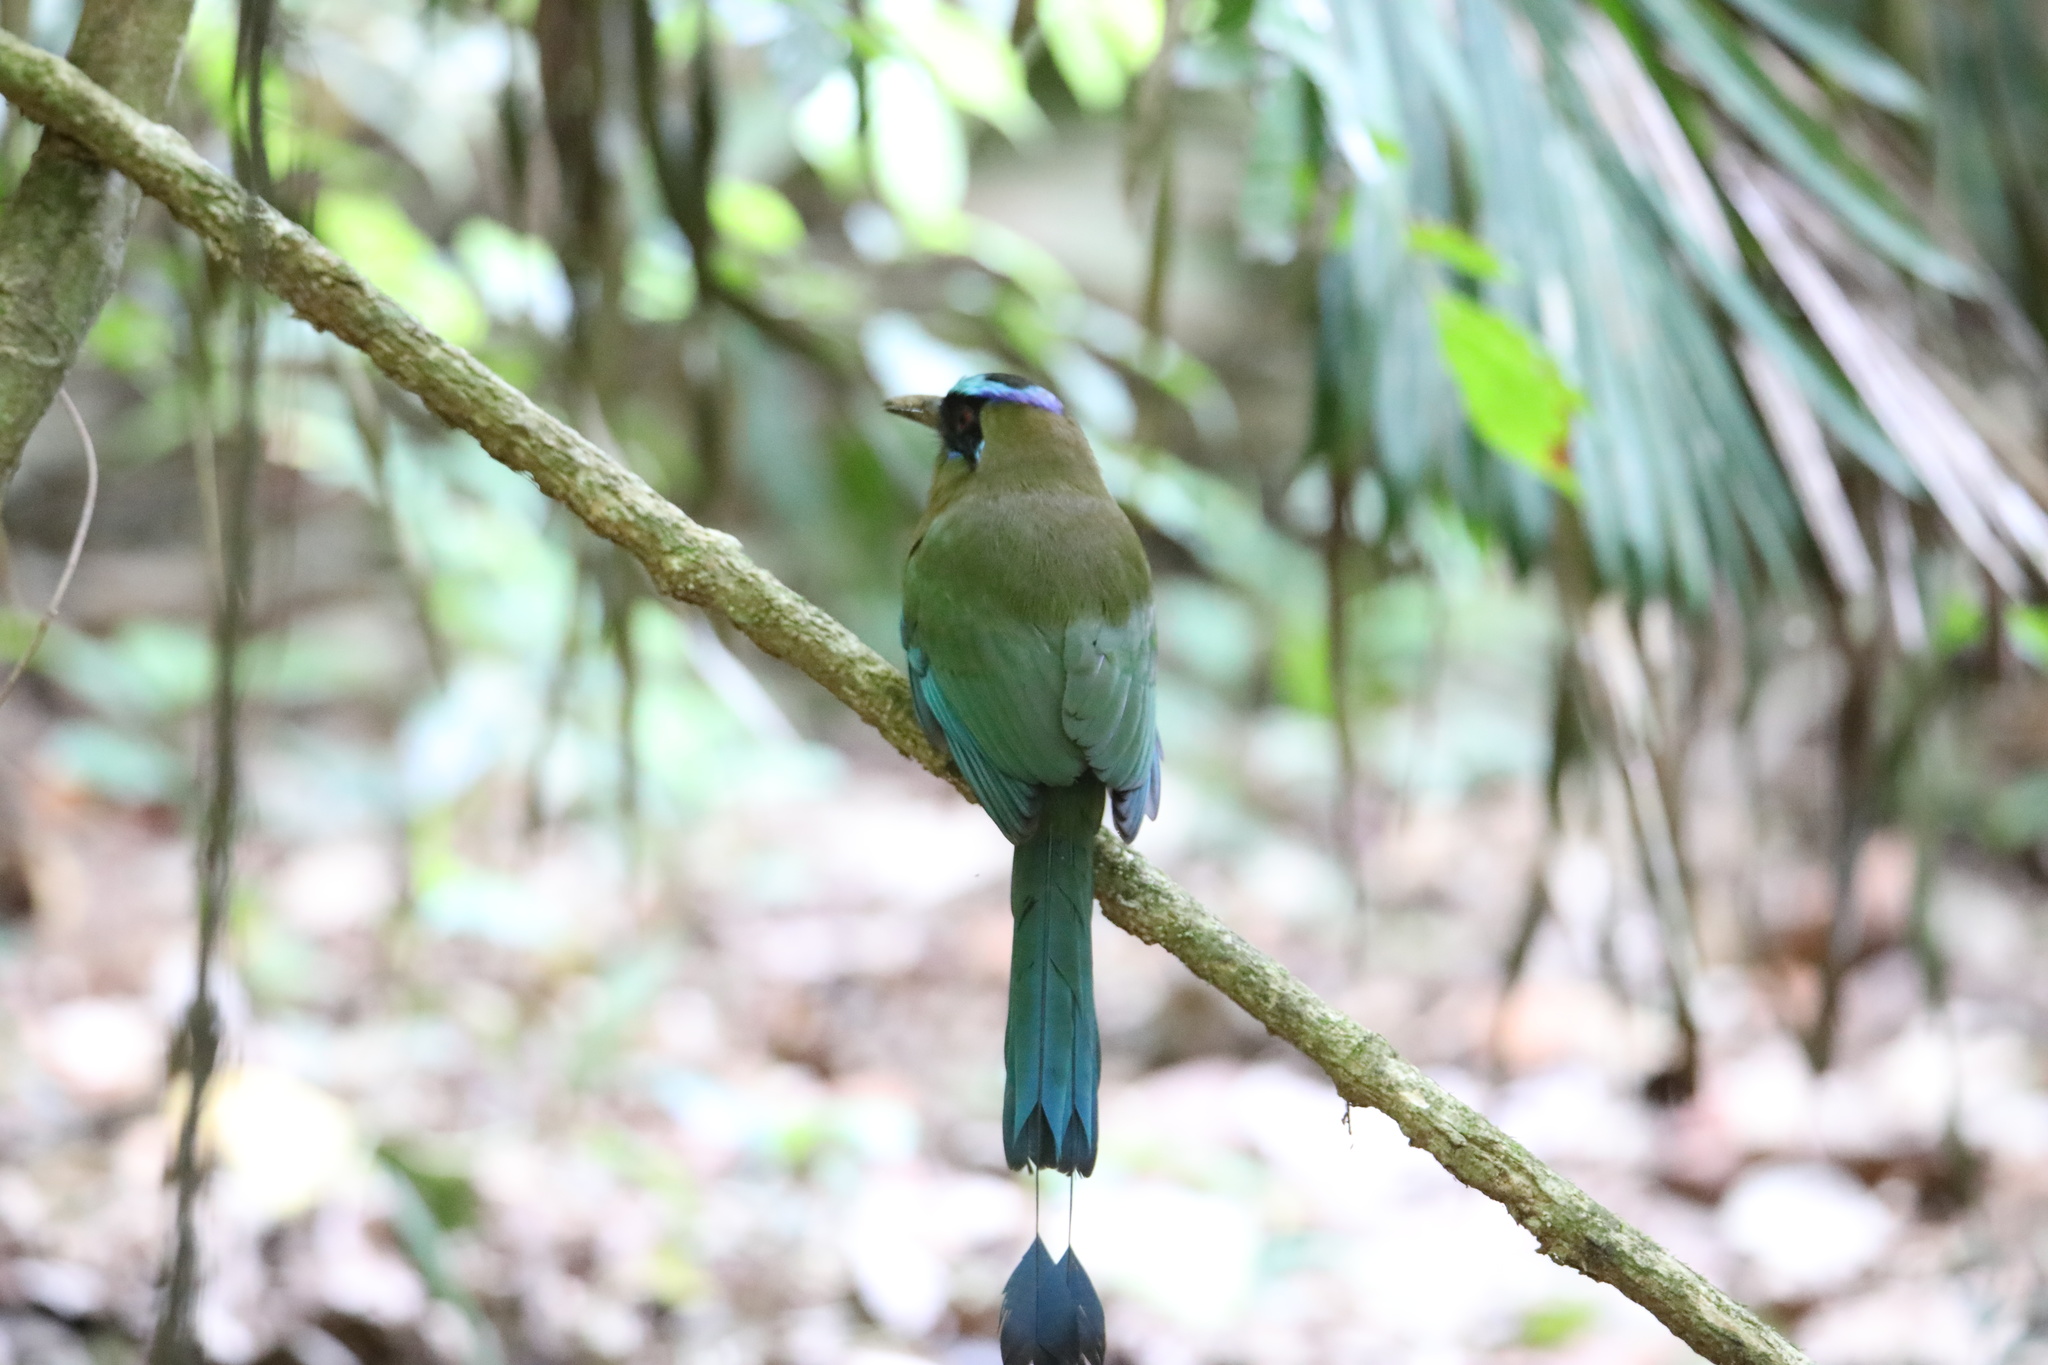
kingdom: Animalia
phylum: Chordata
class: Aves
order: Coraciiformes
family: Momotidae
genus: Momotus
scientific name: Momotus subrufescens
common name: Whooping motmot
